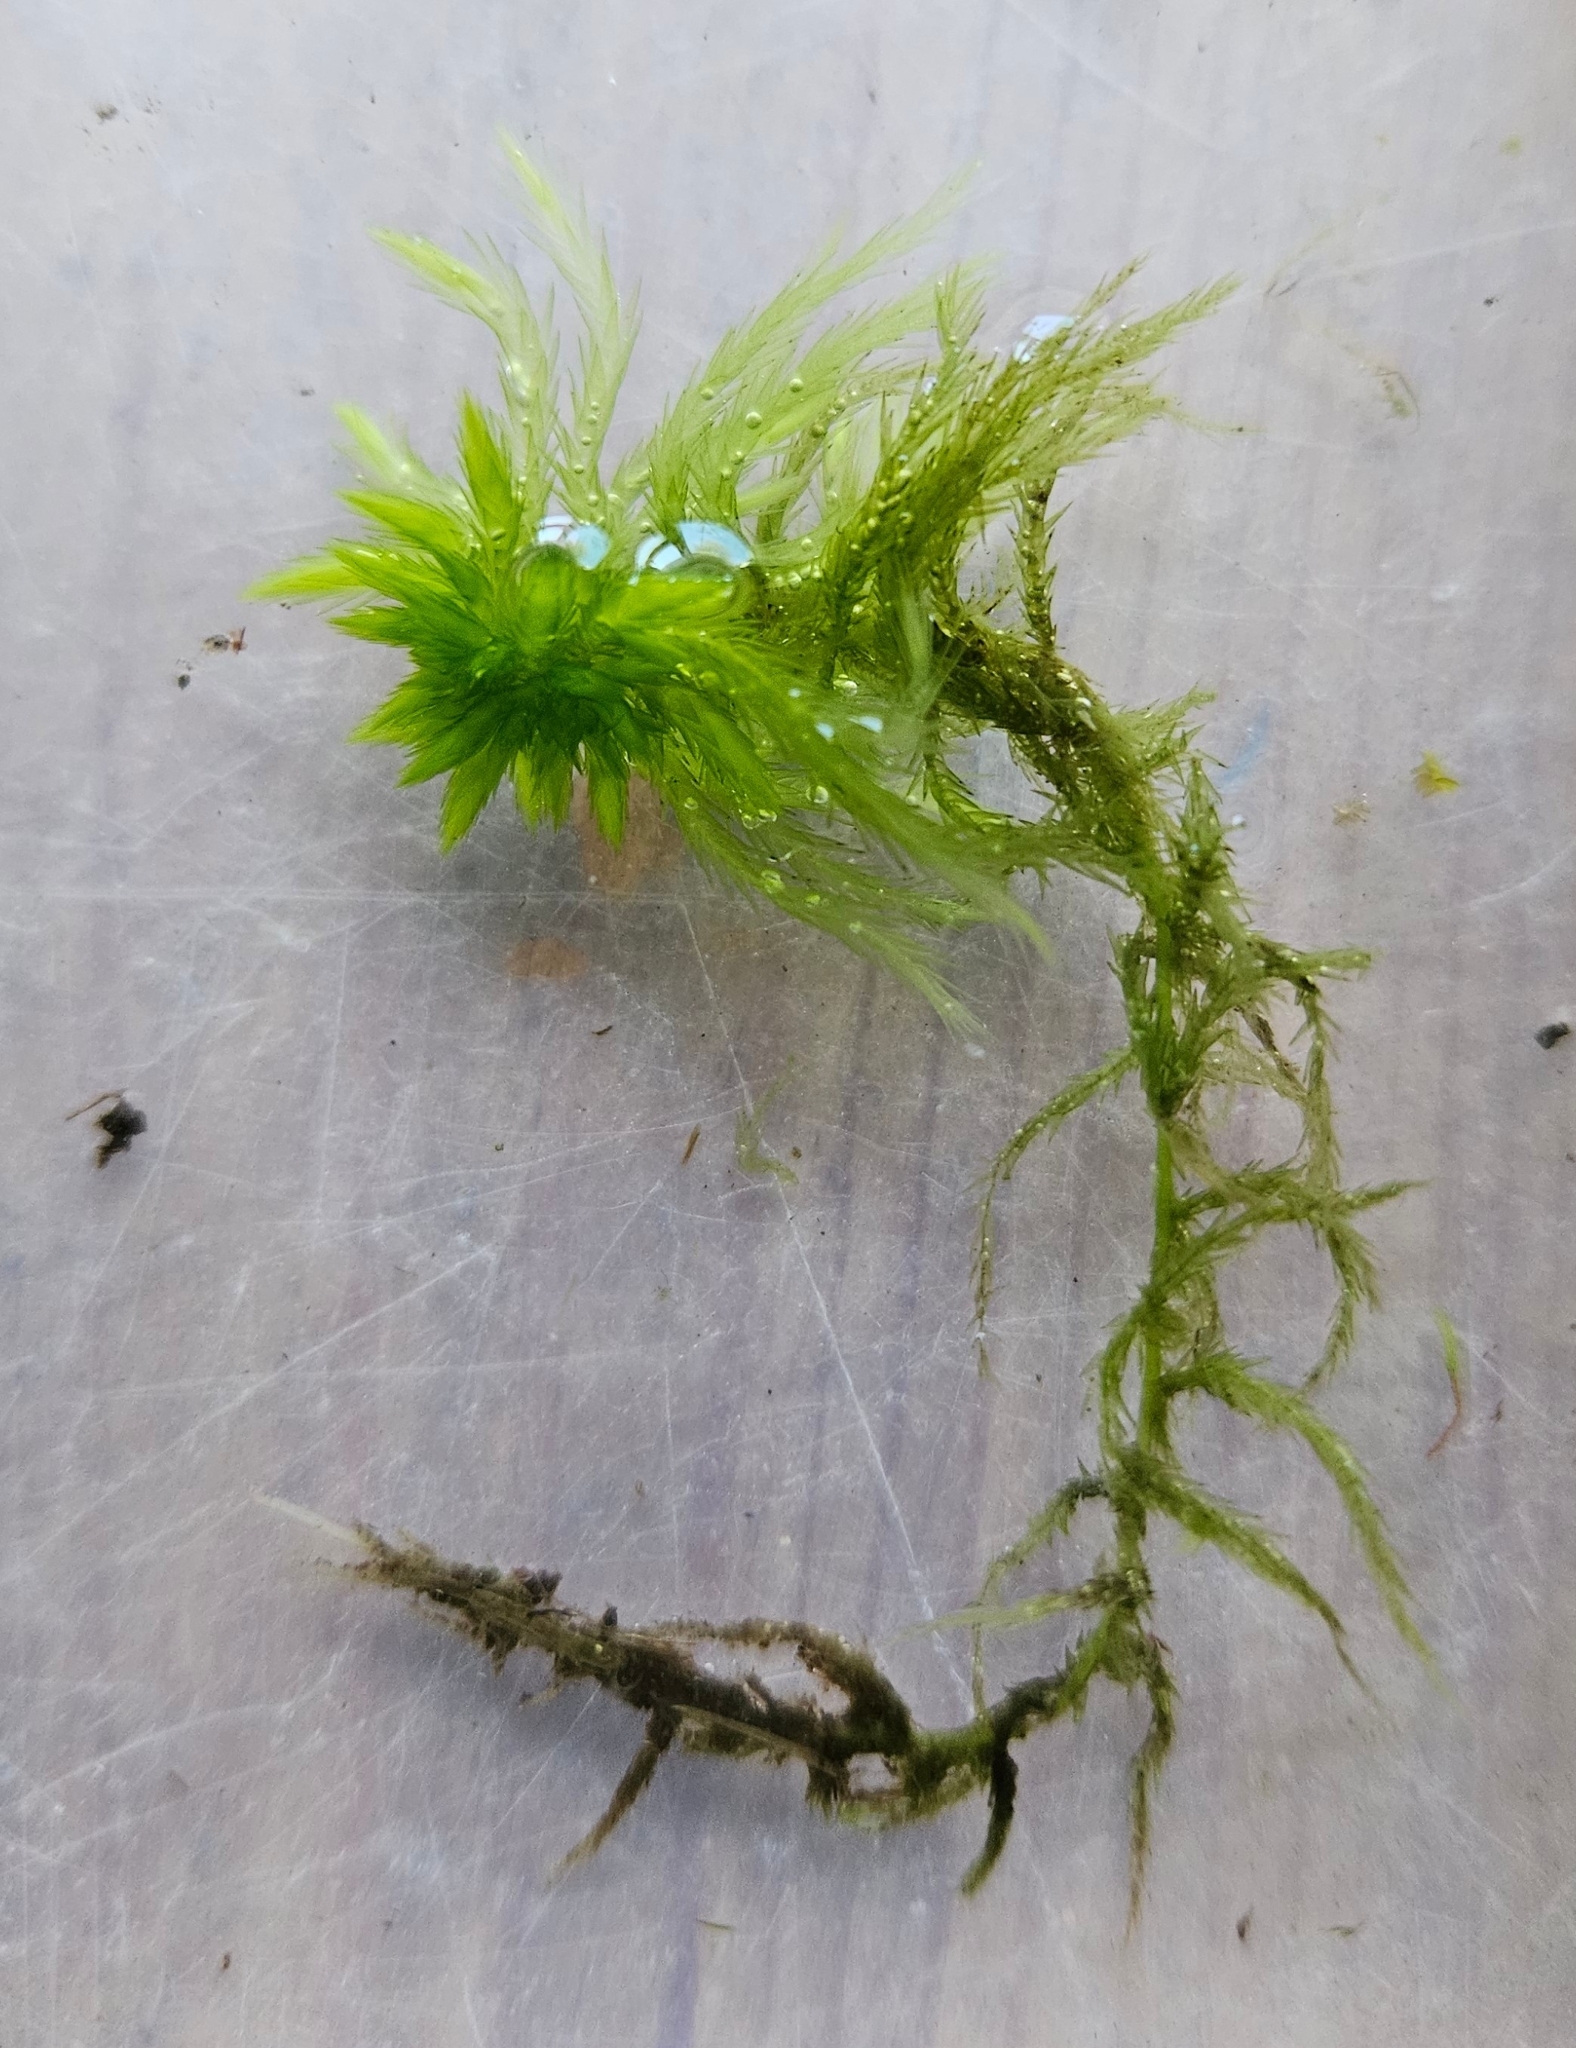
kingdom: Plantae
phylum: Bryophyta
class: Sphagnopsida
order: Sphagnales
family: Sphagnaceae
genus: Sphagnum
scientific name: Sphagnum fallax
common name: Flat-top peat moss
